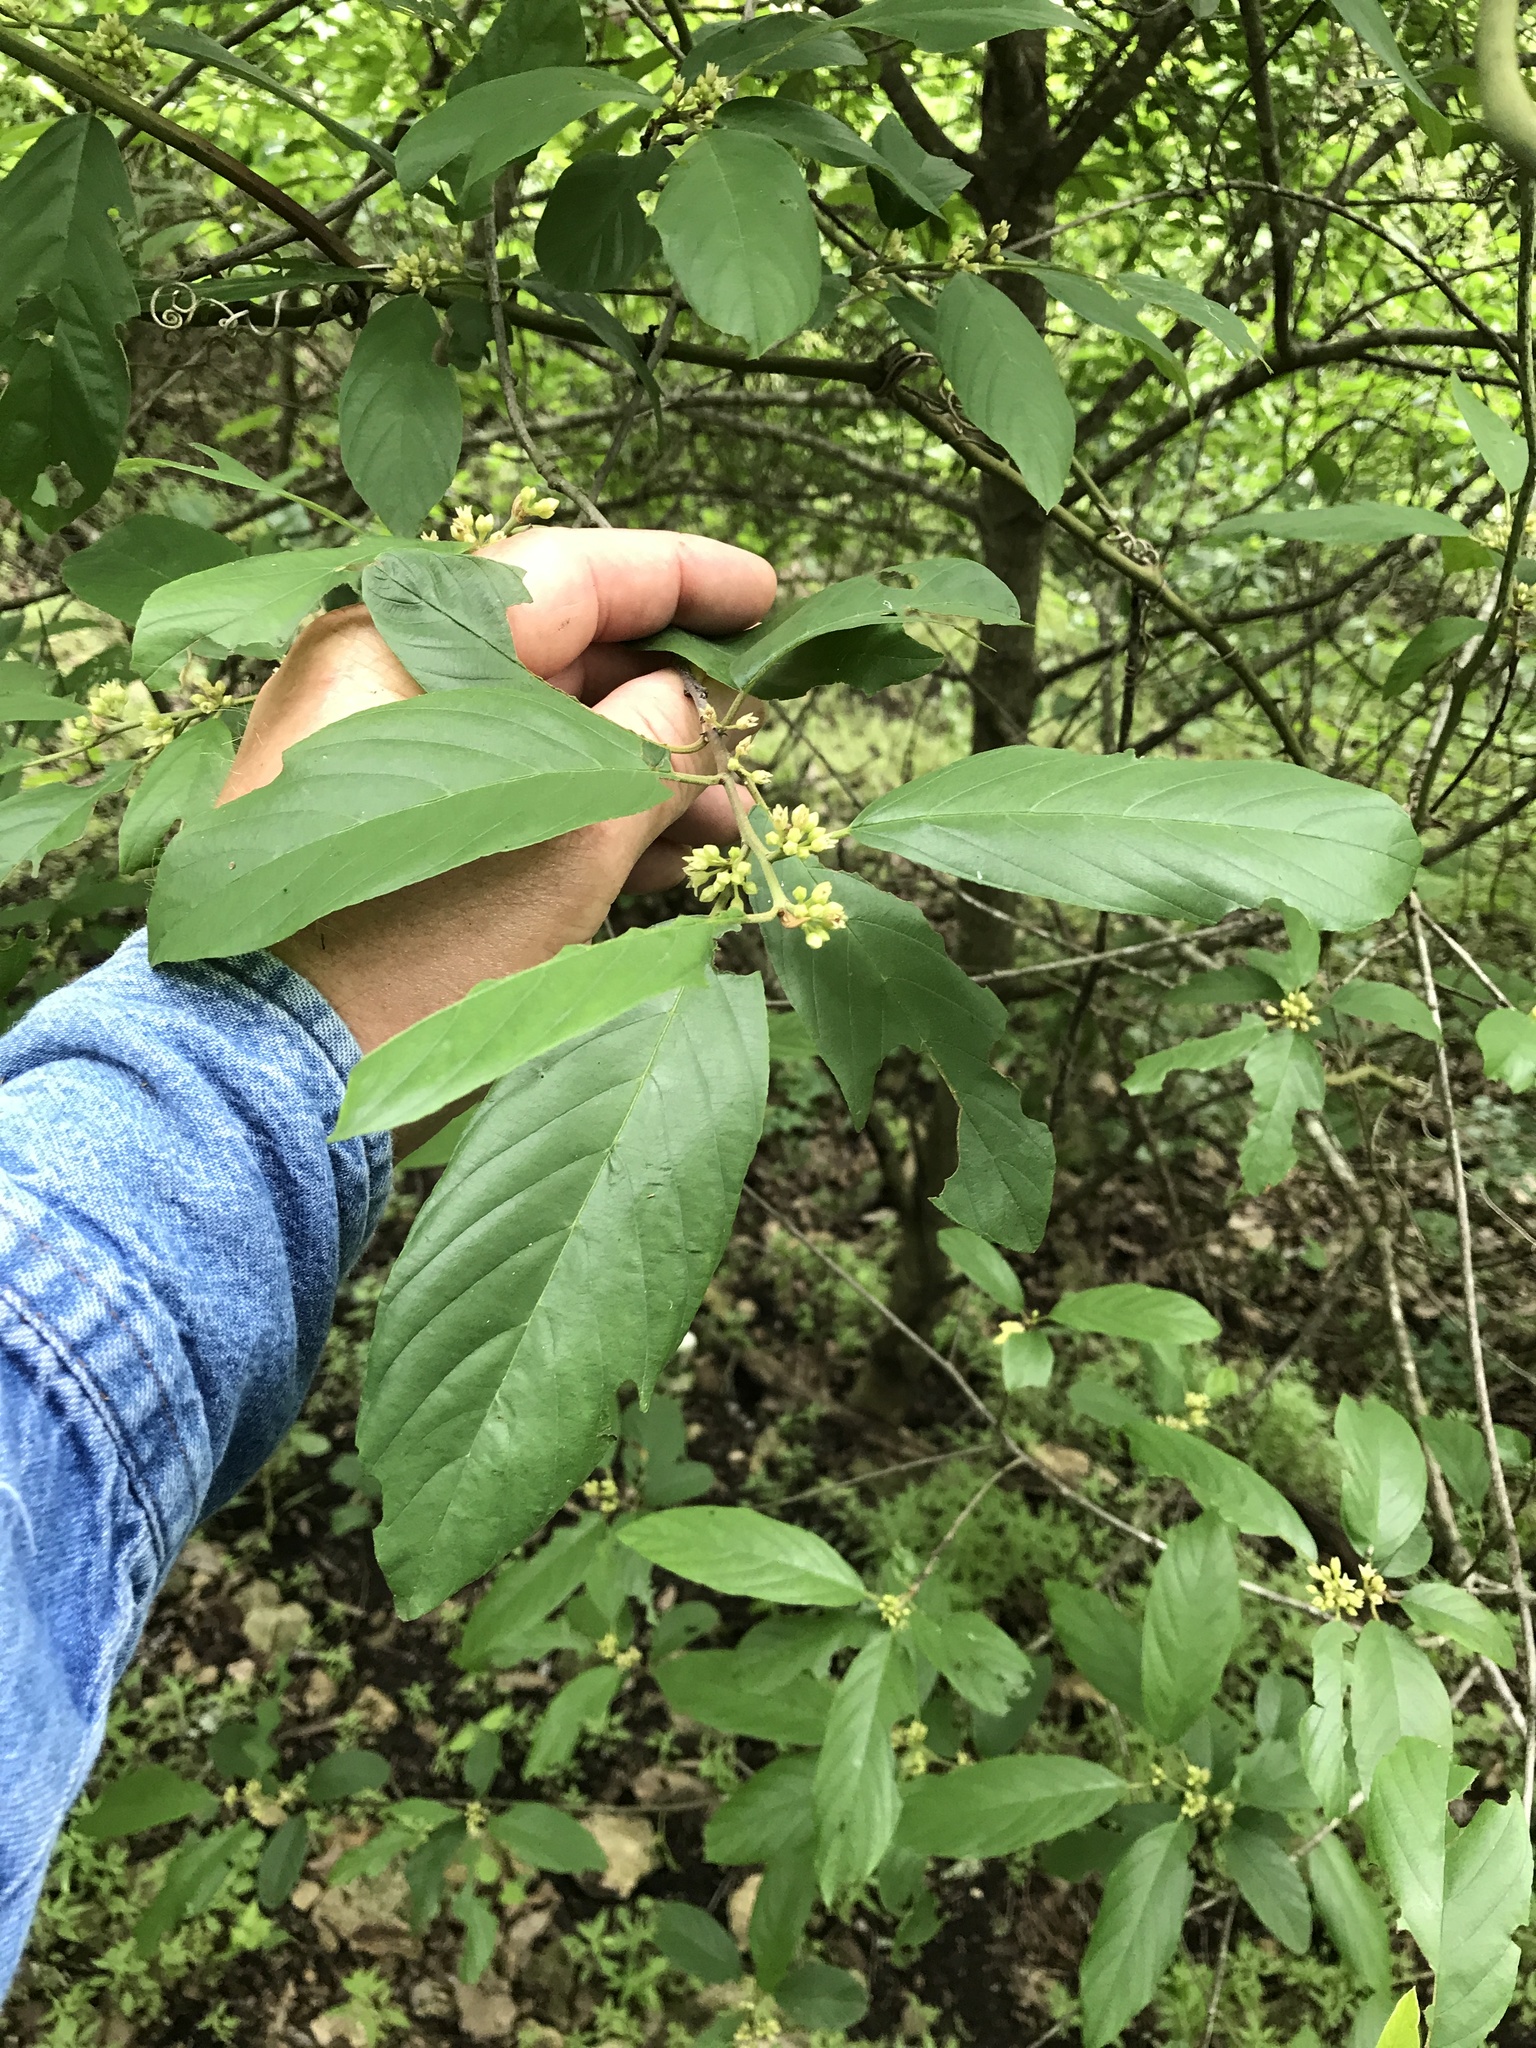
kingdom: Plantae
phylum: Tracheophyta
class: Magnoliopsida
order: Rosales
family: Rhamnaceae
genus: Frangula
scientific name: Frangula caroliniana
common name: Carolina buckthorn
